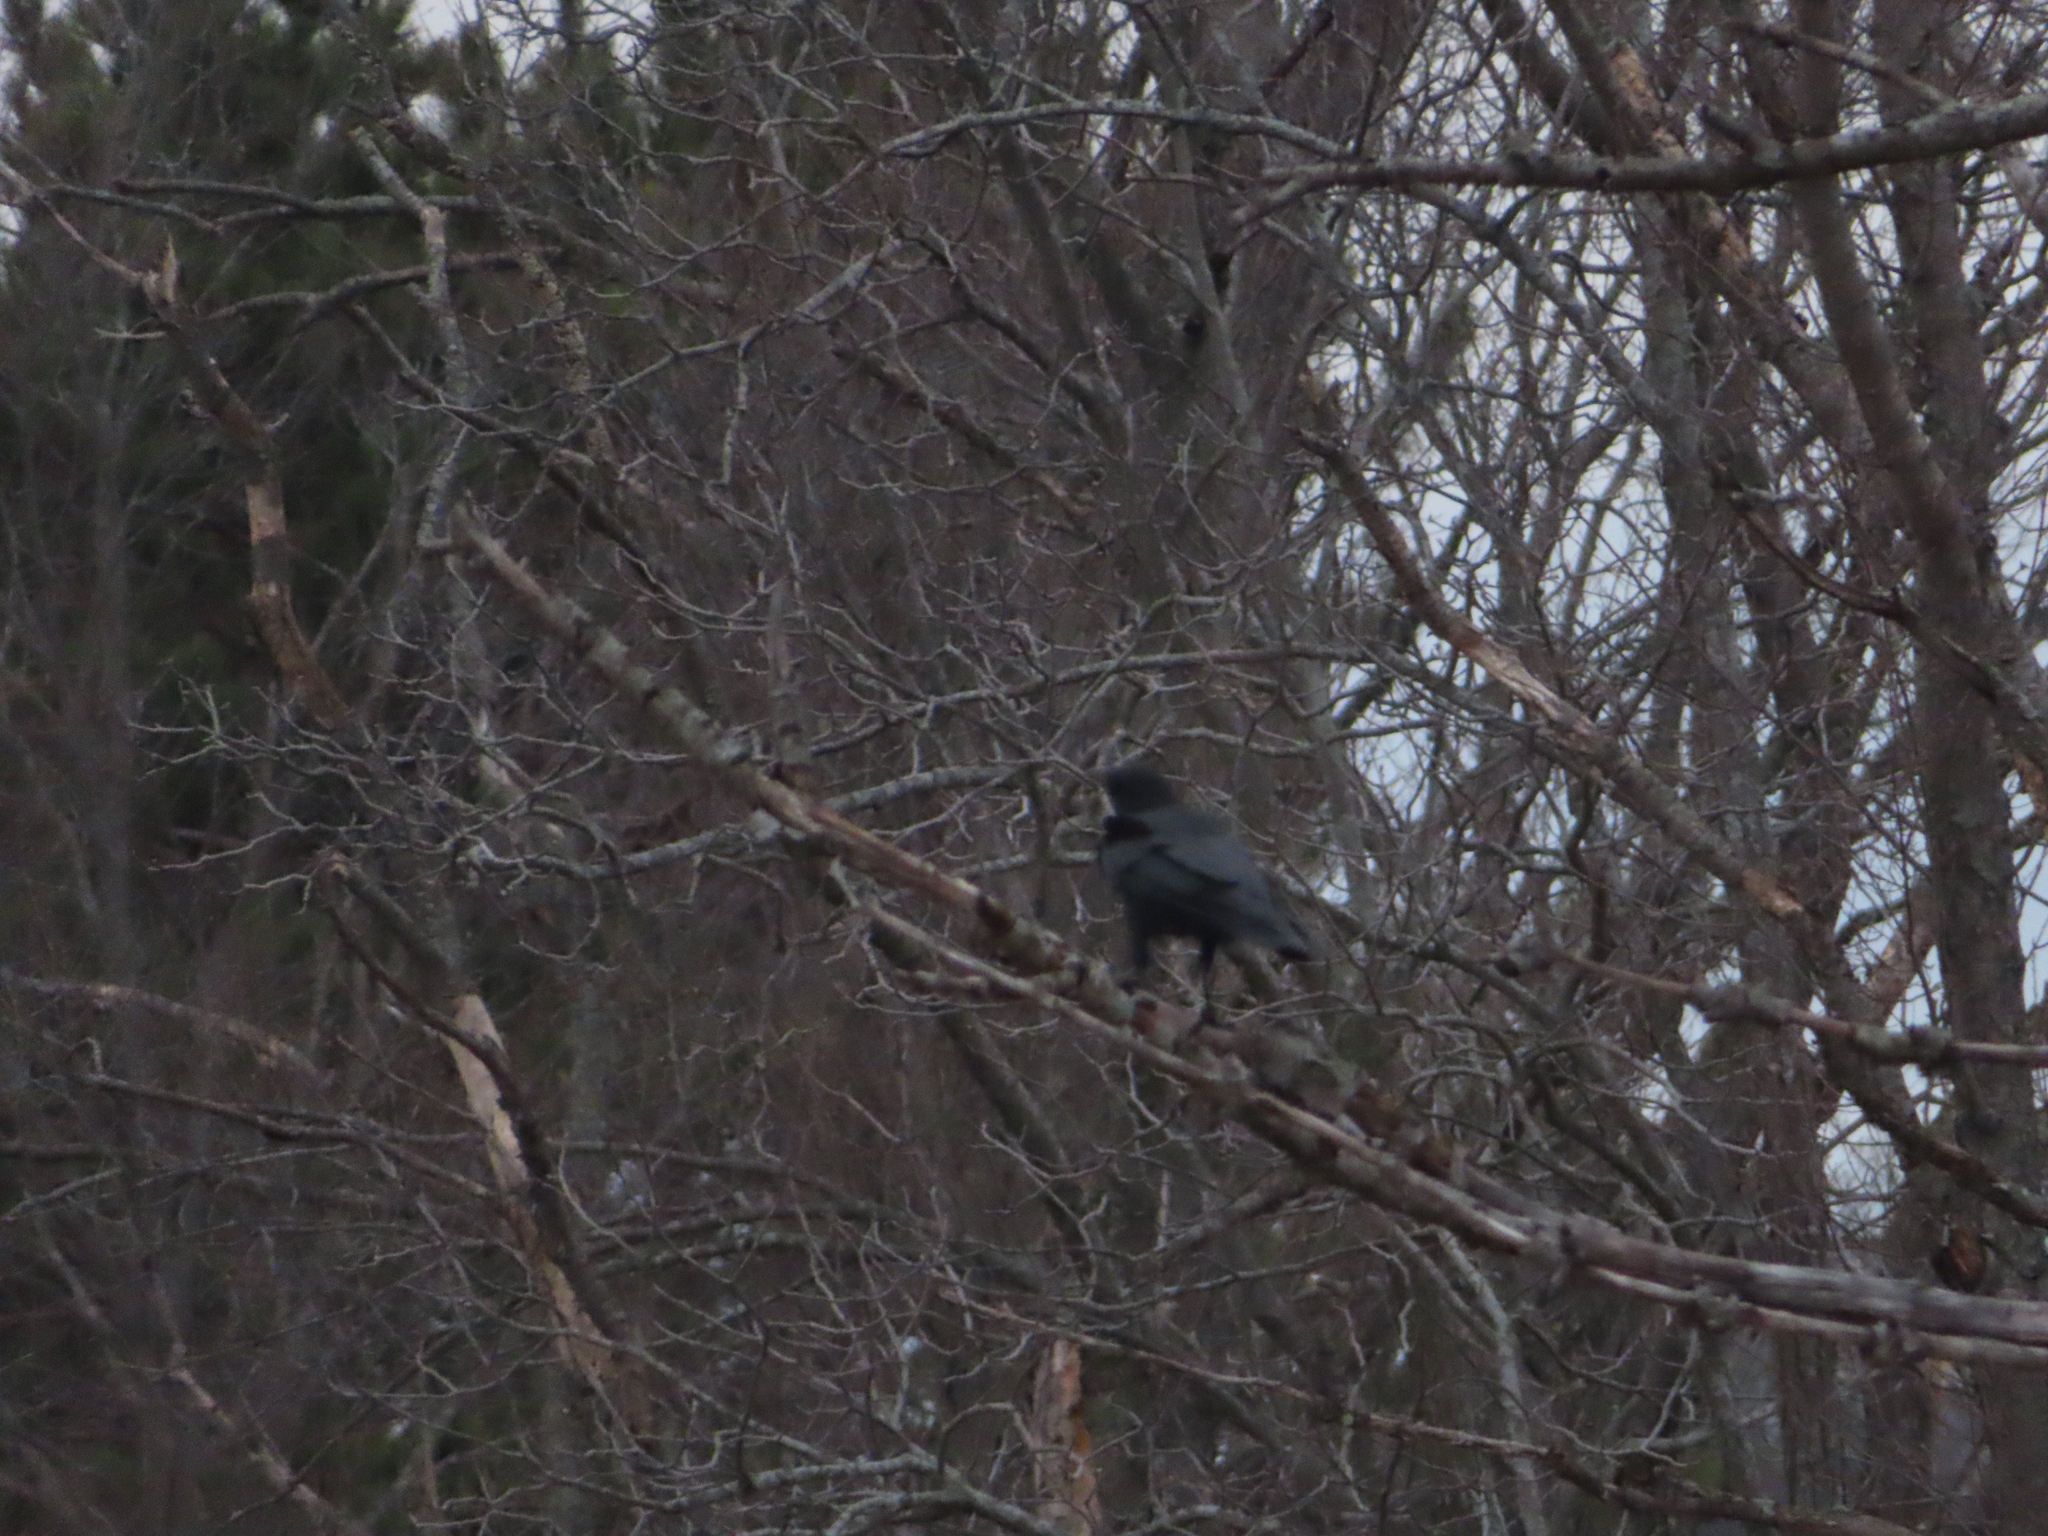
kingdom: Animalia
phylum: Chordata
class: Aves
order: Passeriformes
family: Corvidae
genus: Corvus
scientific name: Corvus brachyrhynchos
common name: American crow
